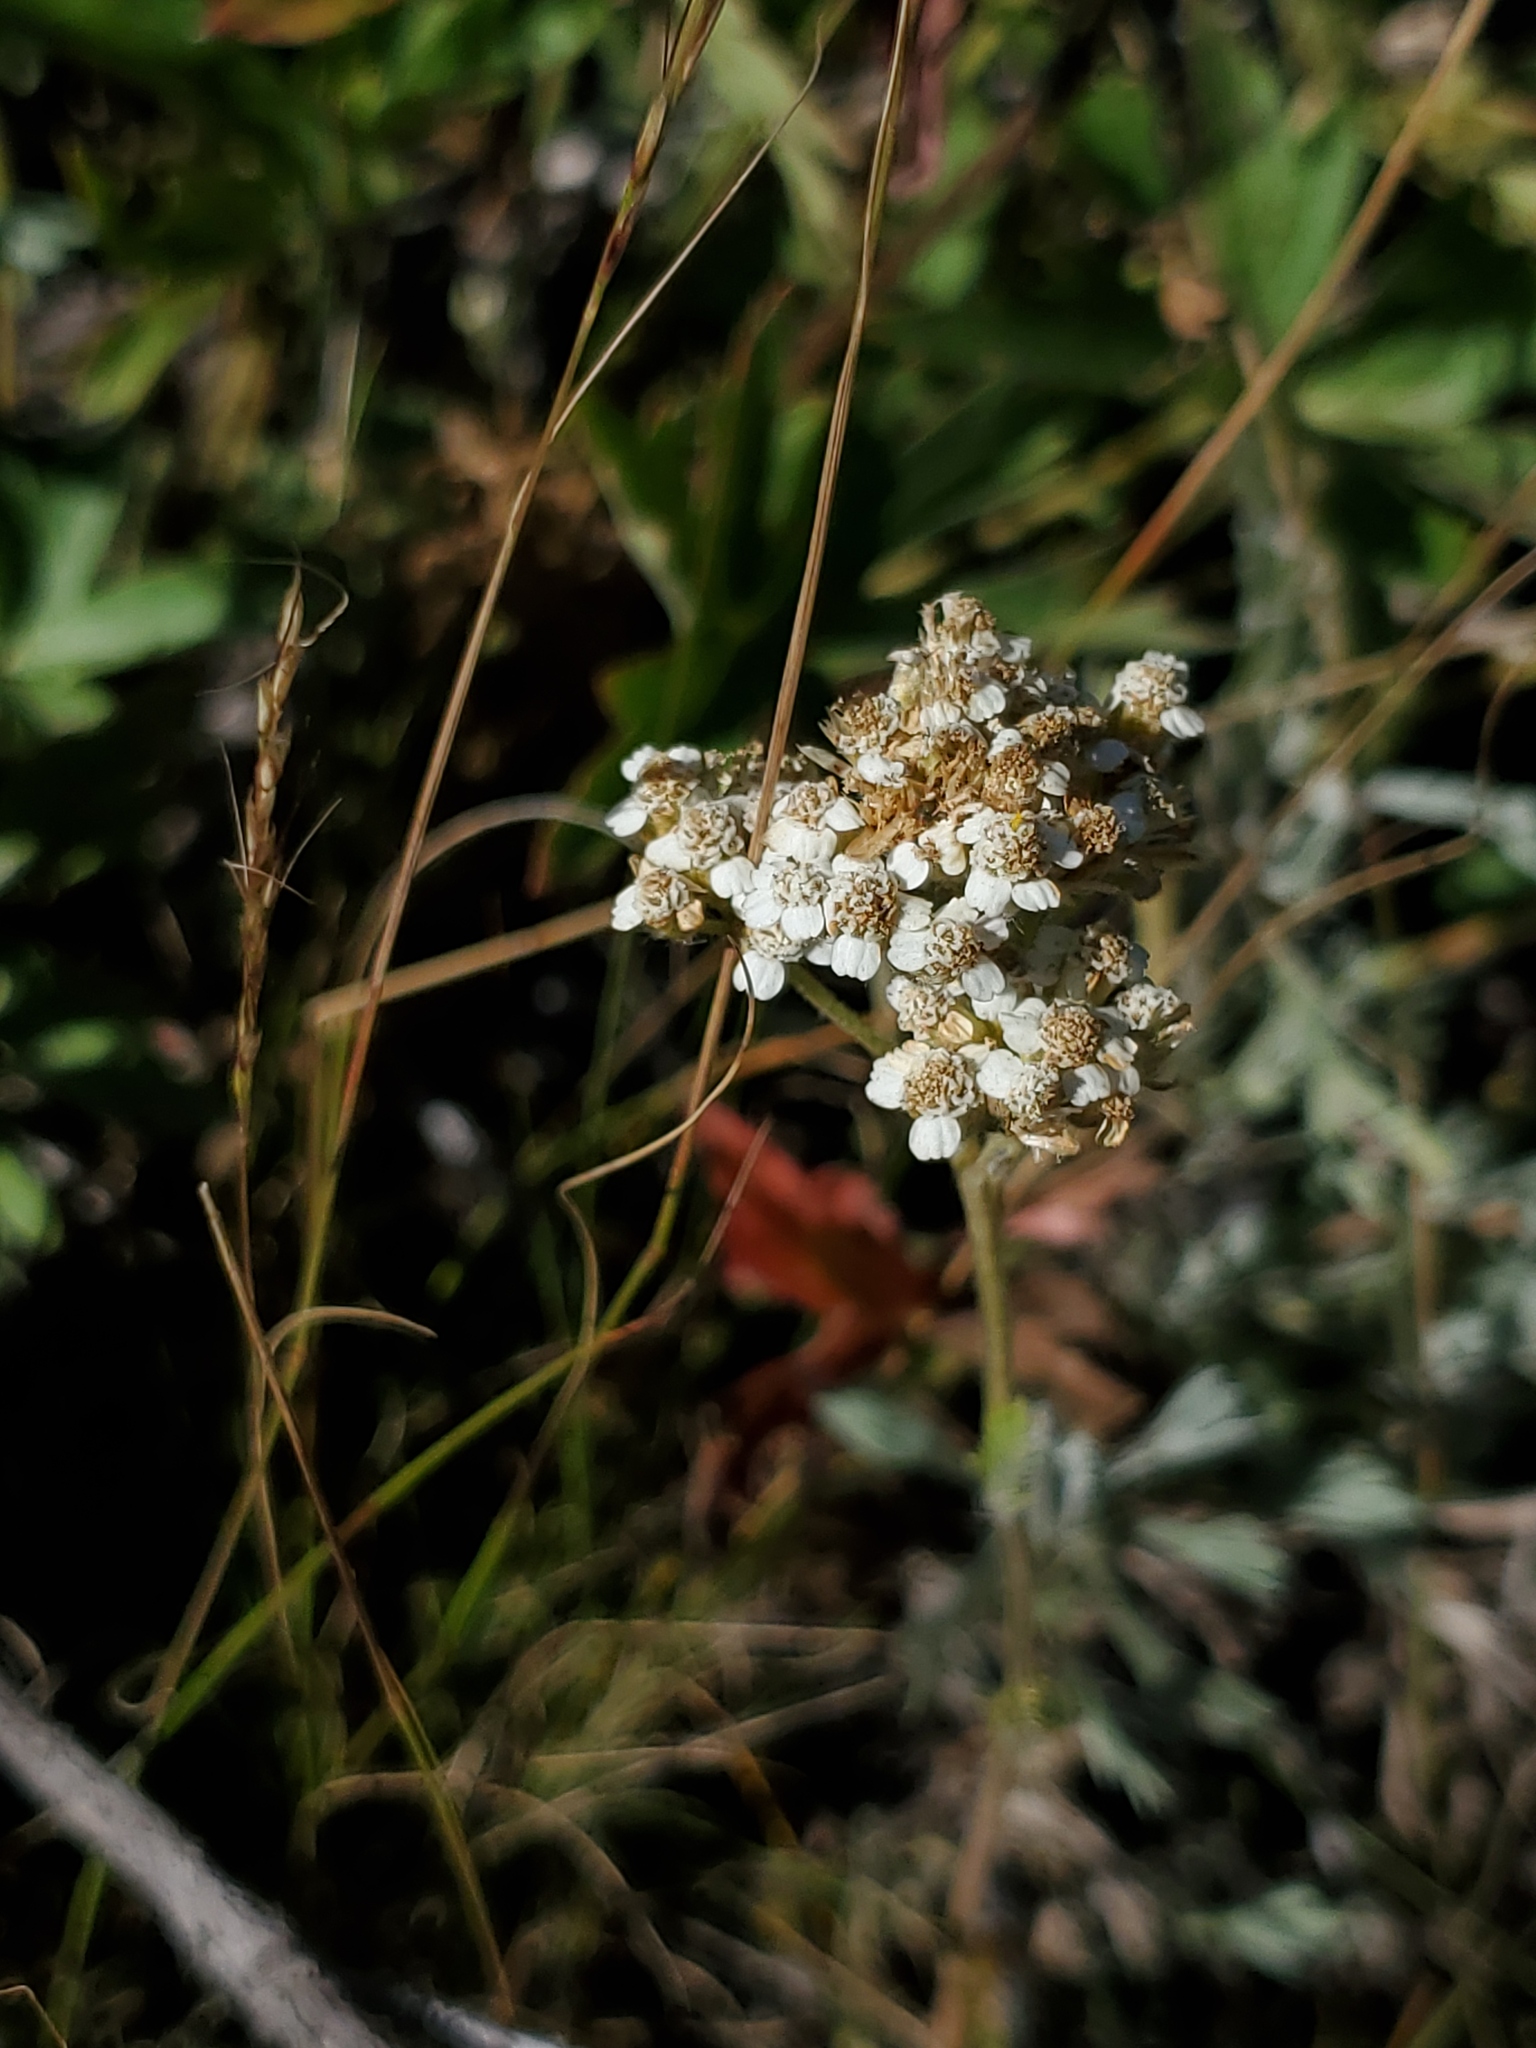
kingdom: Plantae
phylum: Tracheophyta
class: Magnoliopsida
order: Asterales
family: Asteraceae
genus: Achillea
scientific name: Achillea millefolium
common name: Yarrow
